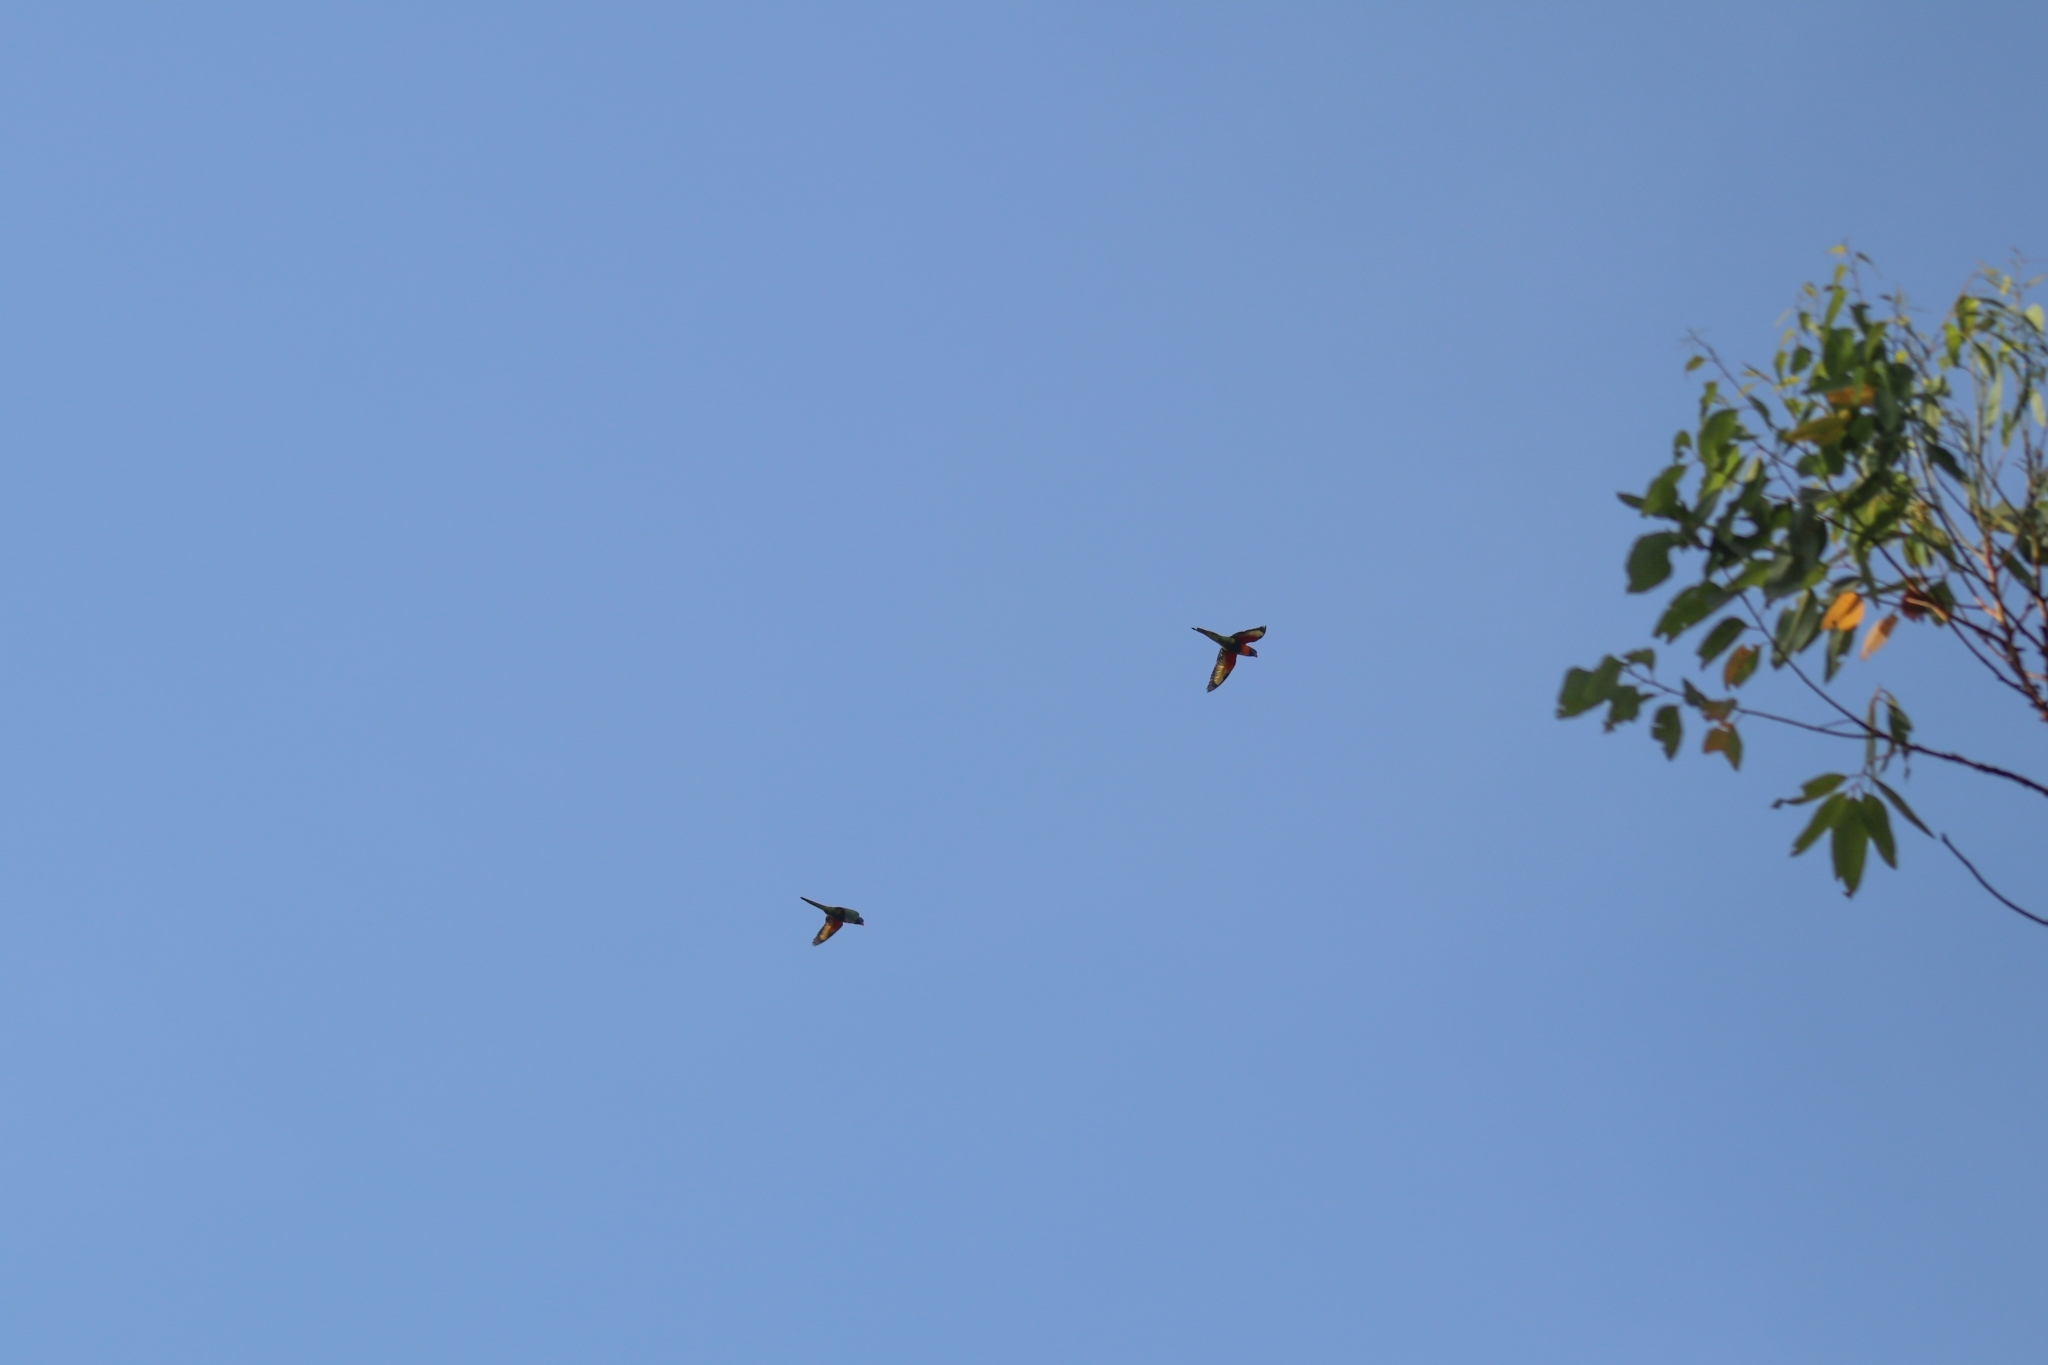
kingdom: Animalia
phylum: Chordata
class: Aves
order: Psittaciformes
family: Psittacidae
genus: Trichoglossus
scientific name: Trichoglossus rubritorquis
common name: Red-collared lorikeet
